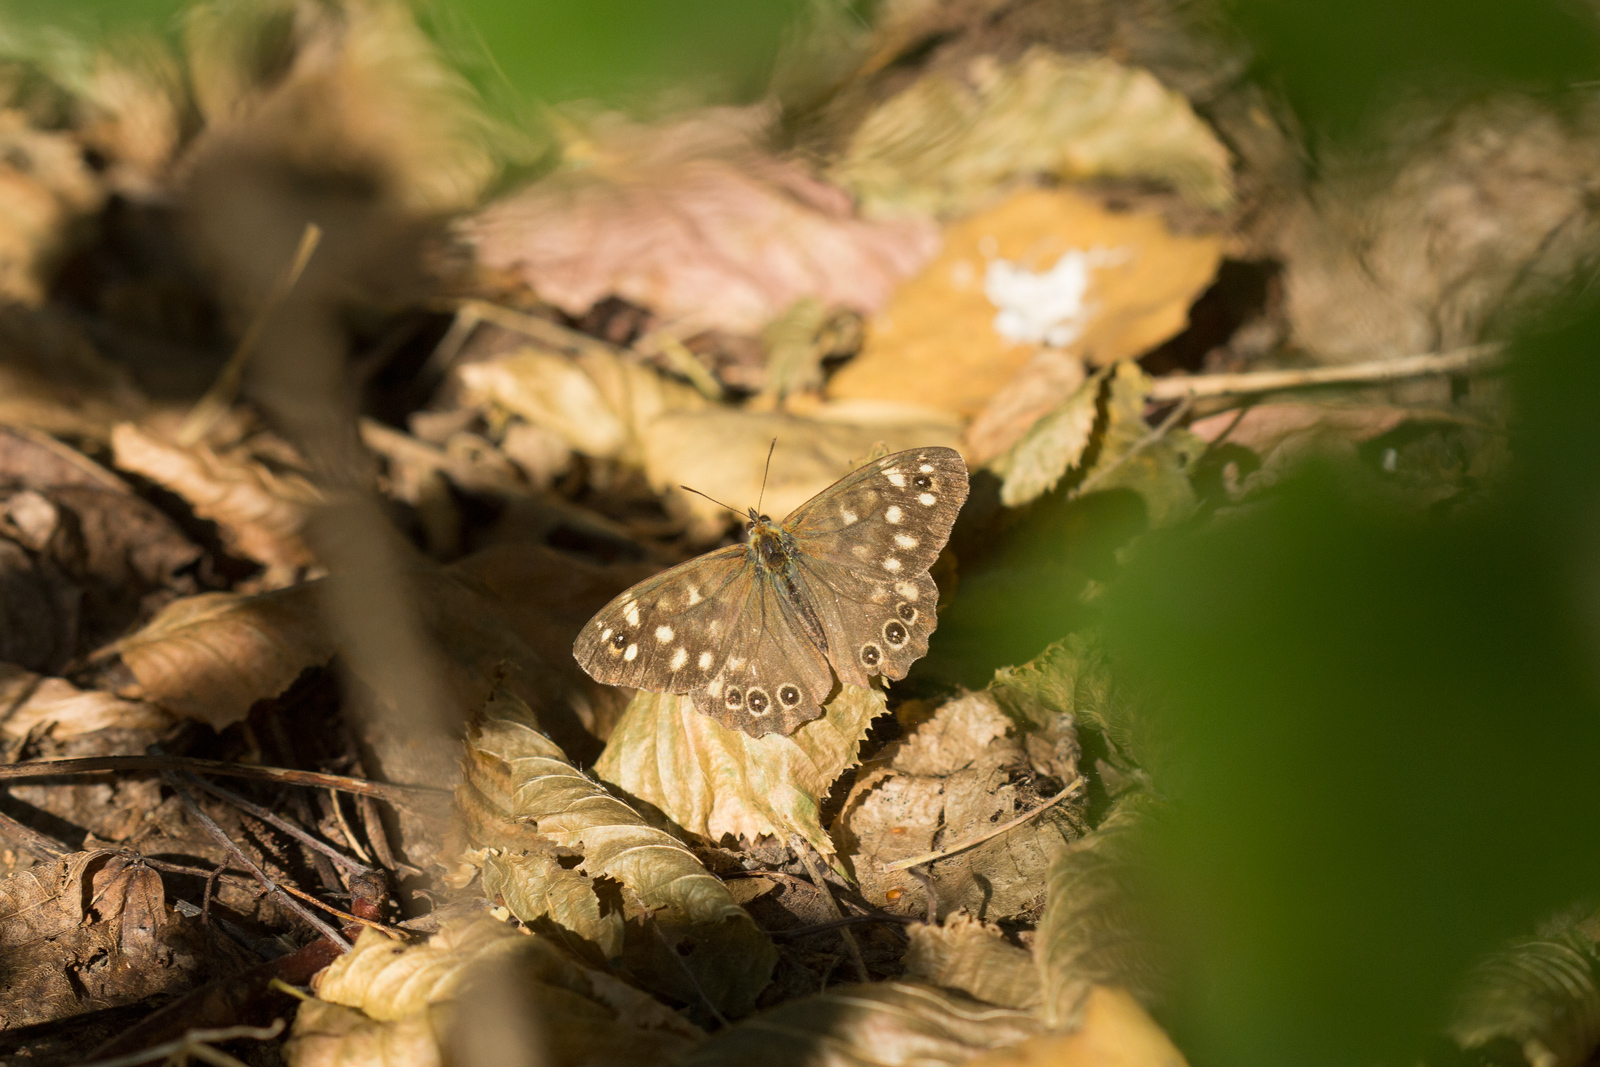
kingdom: Animalia
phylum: Arthropoda
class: Insecta
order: Lepidoptera
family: Nymphalidae
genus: Pararge
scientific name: Pararge aegeria
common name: Speckled wood
